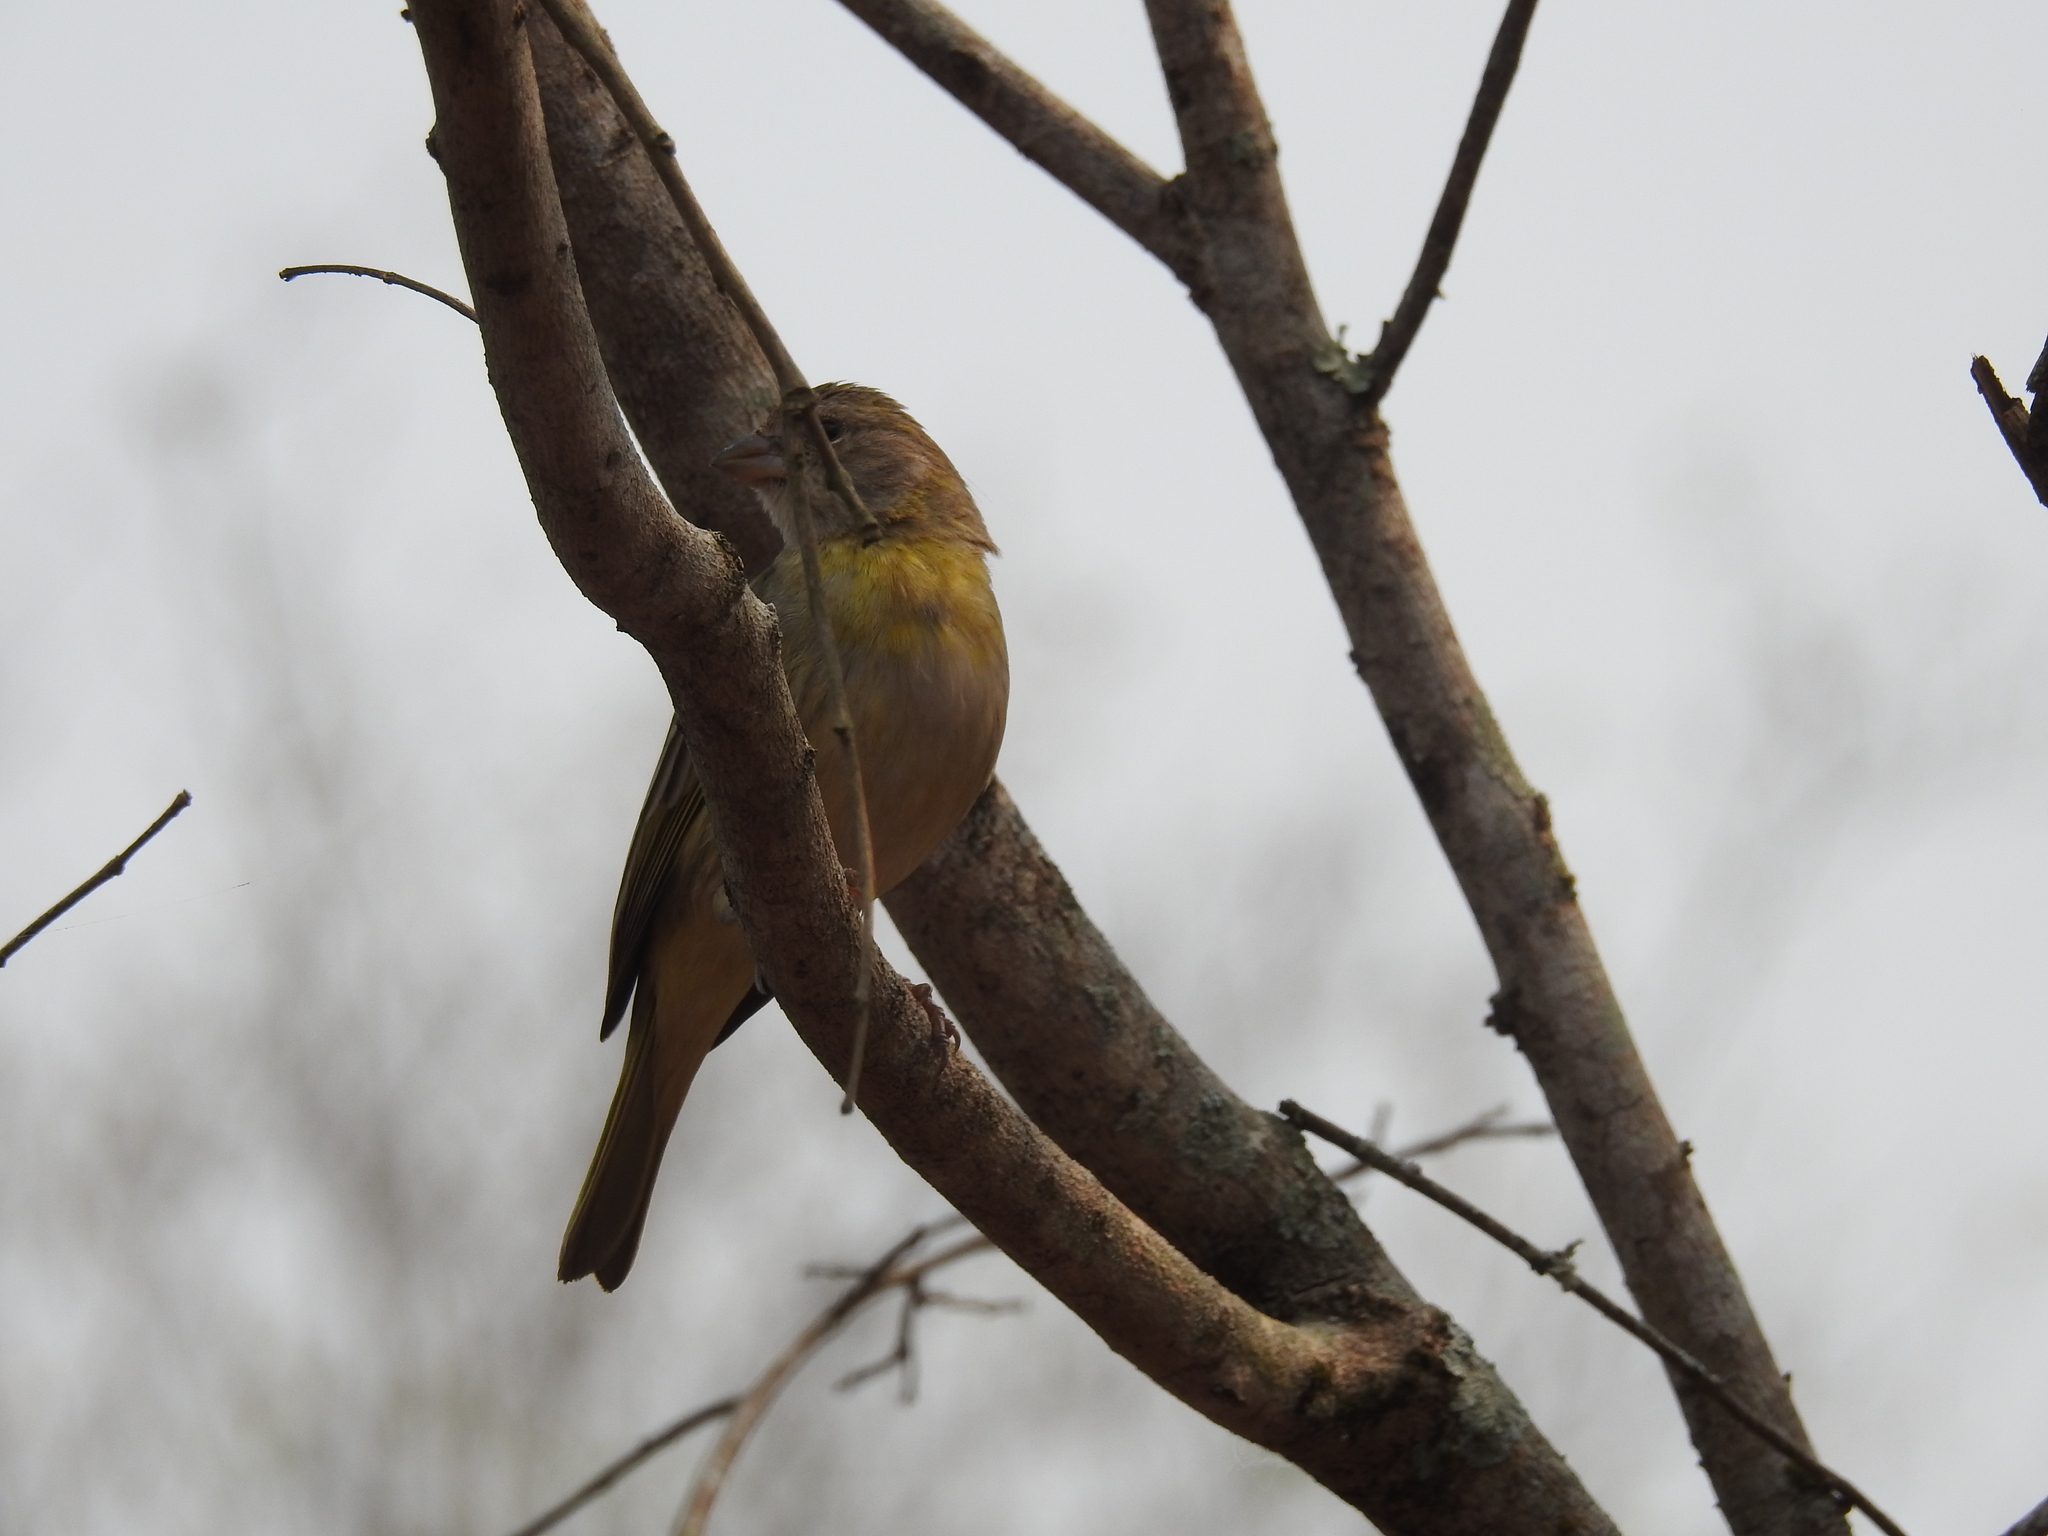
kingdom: Animalia
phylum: Chordata
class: Aves
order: Passeriformes
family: Thraupidae
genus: Sicalis
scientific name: Sicalis flaveola
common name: Saffron finch
